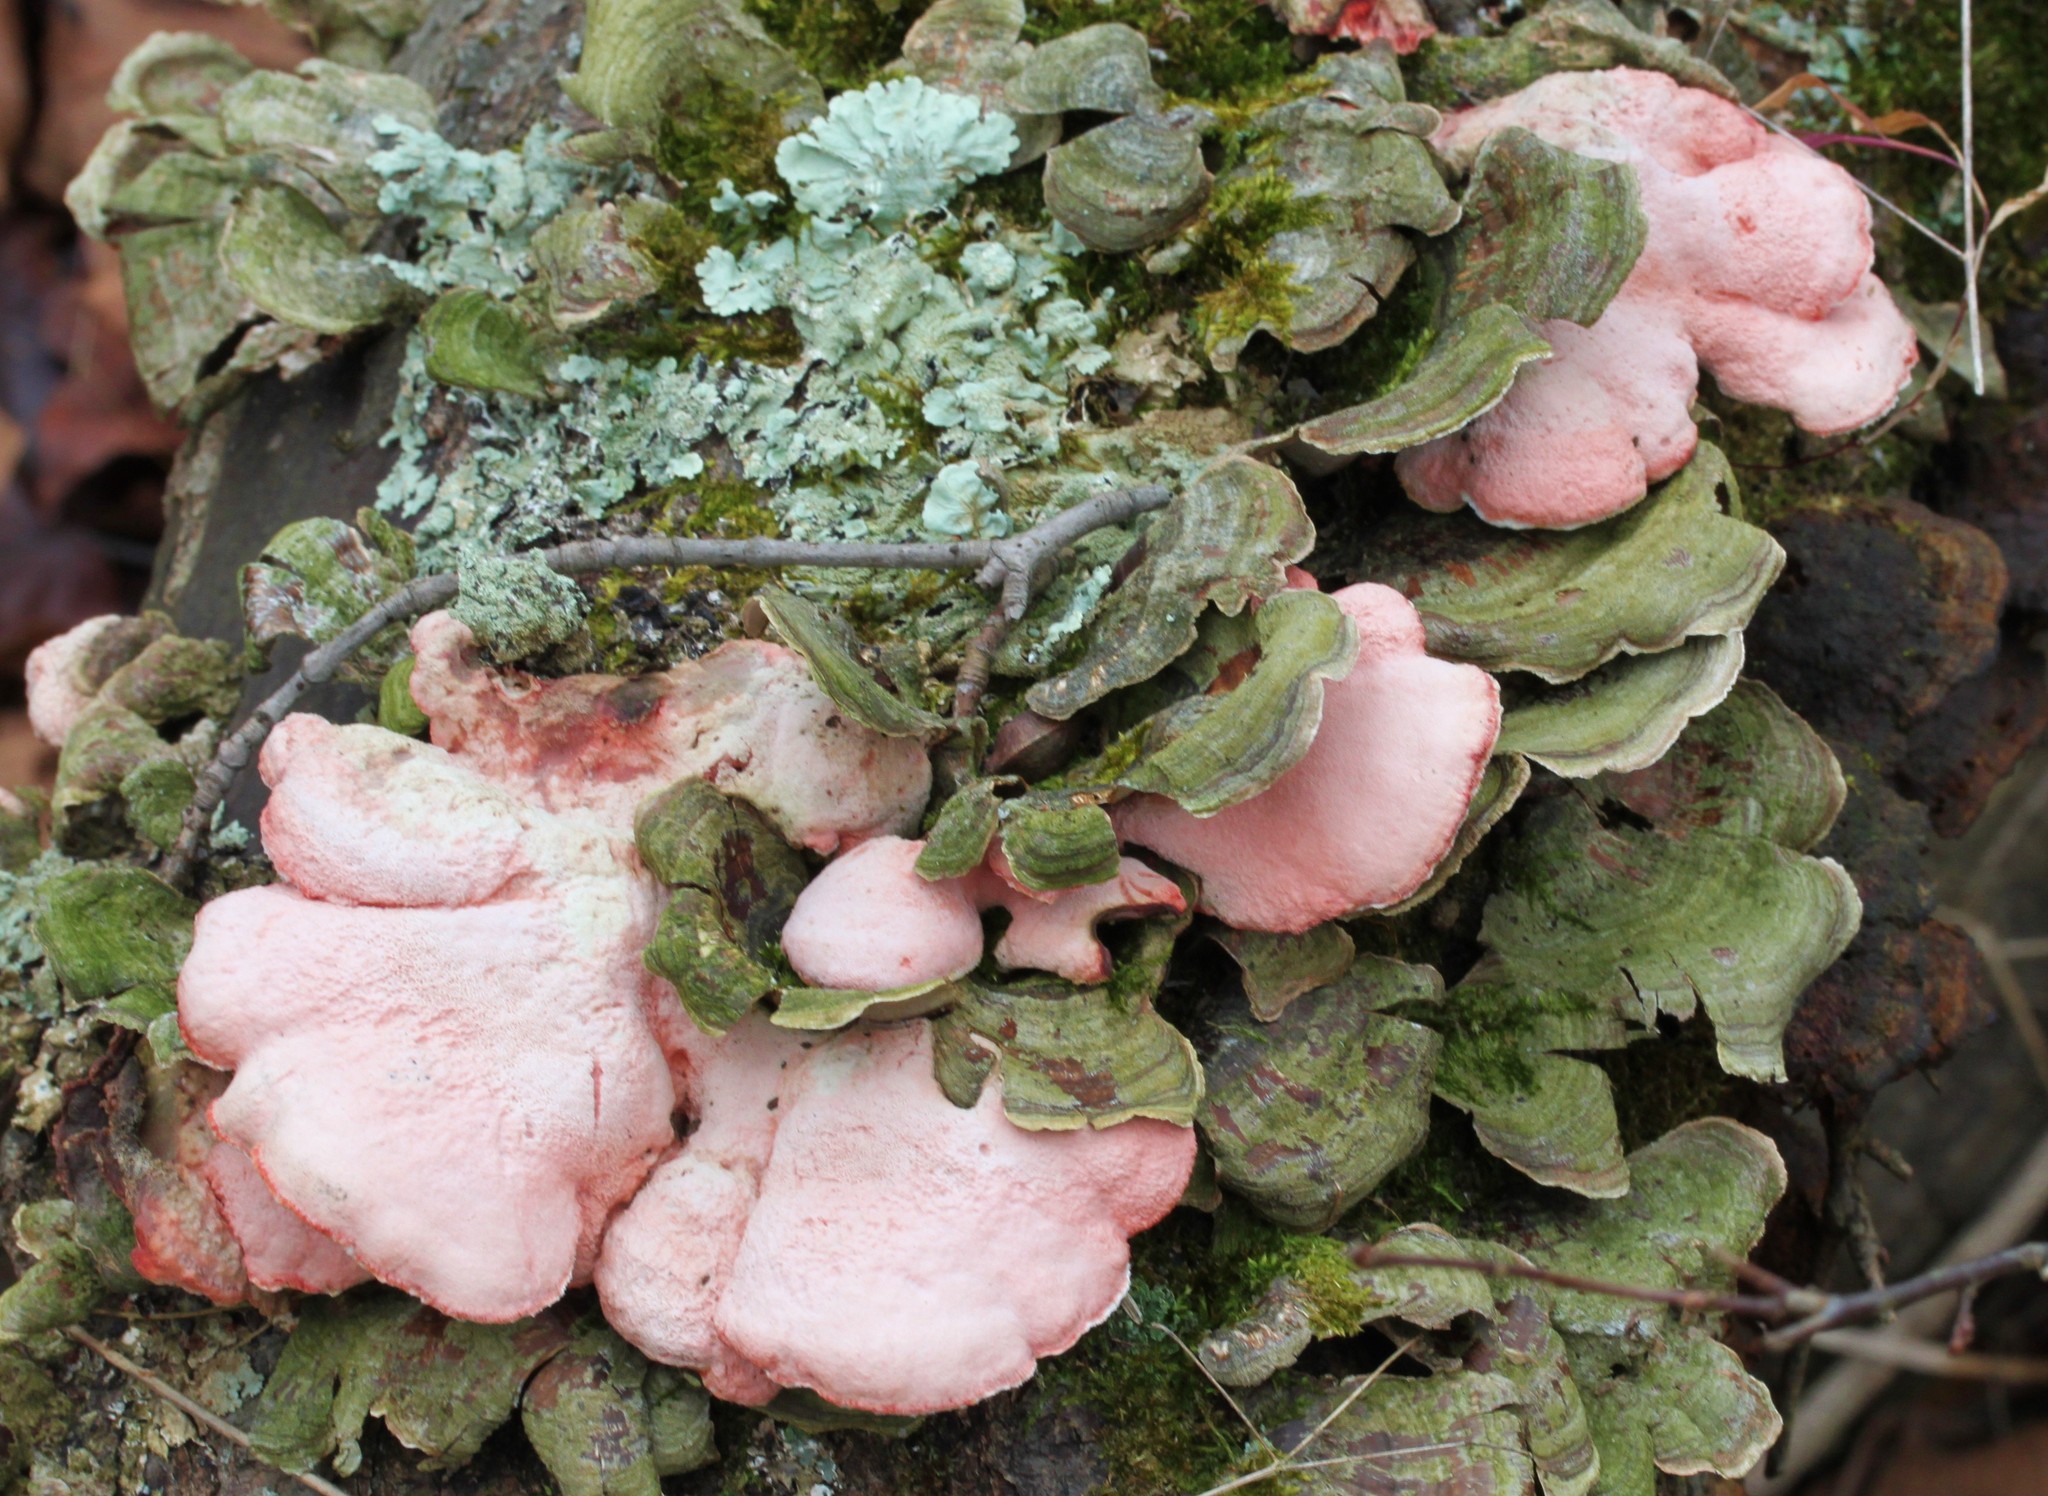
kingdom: Fungi
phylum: Basidiomycota
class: Agaricomycetes
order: Polyporales
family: Irpicaceae
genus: Byssomerulius
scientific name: Byssomerulius incarnatus
